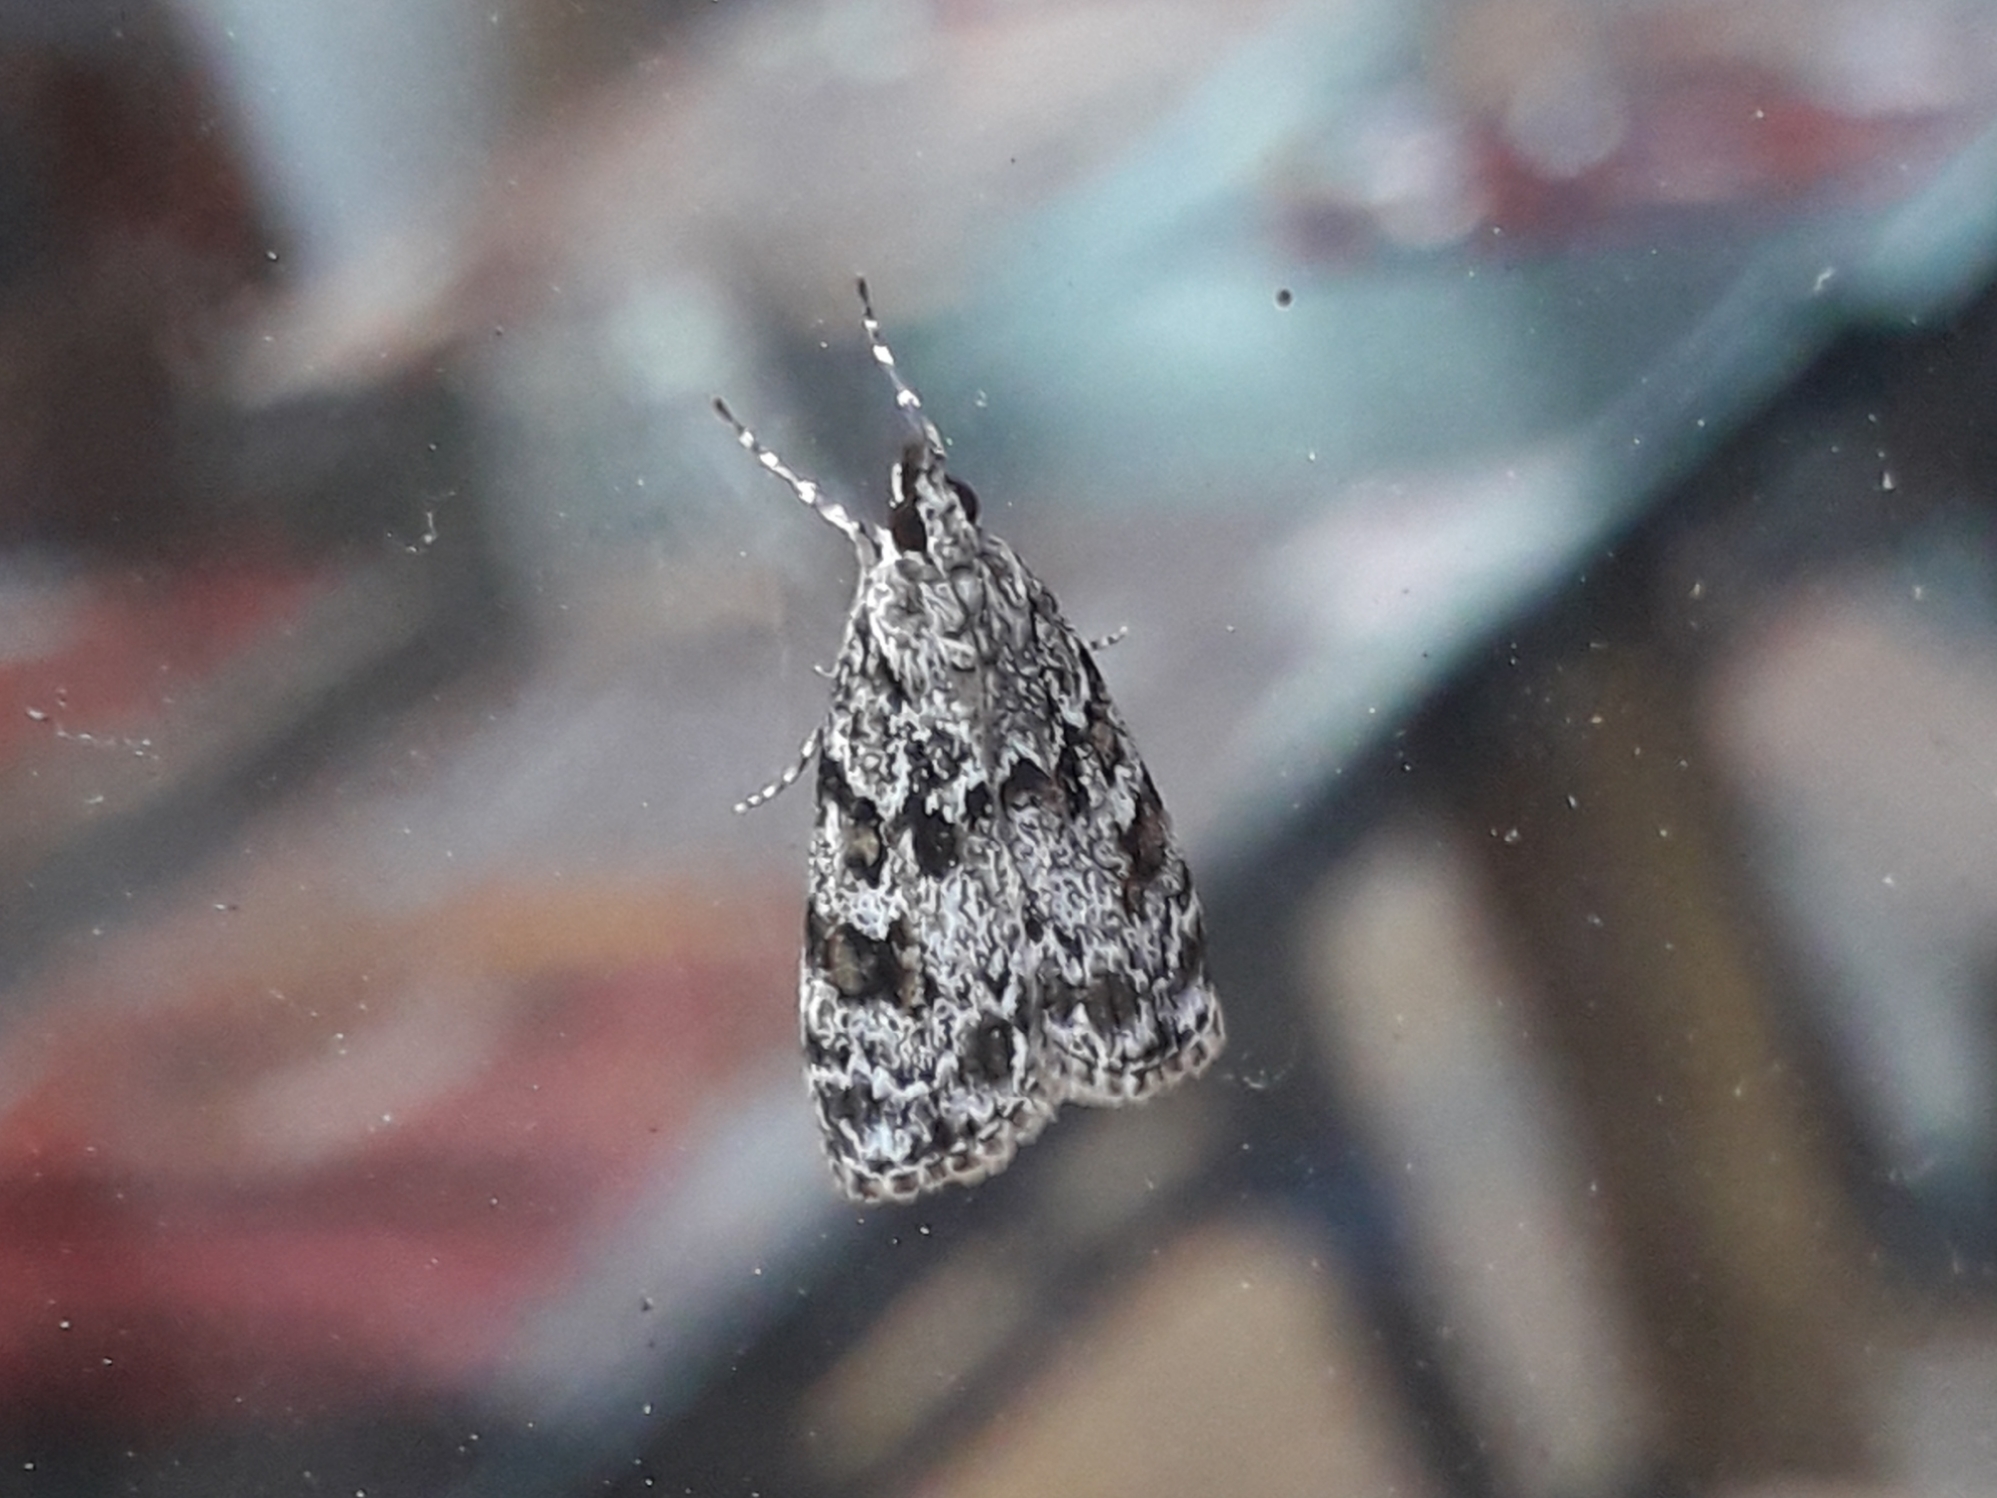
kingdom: Animalia
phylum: Arthropoda
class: Insecta
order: Lepidoptera
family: Crambidae
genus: Scoparia
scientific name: Scoparia pyralella
